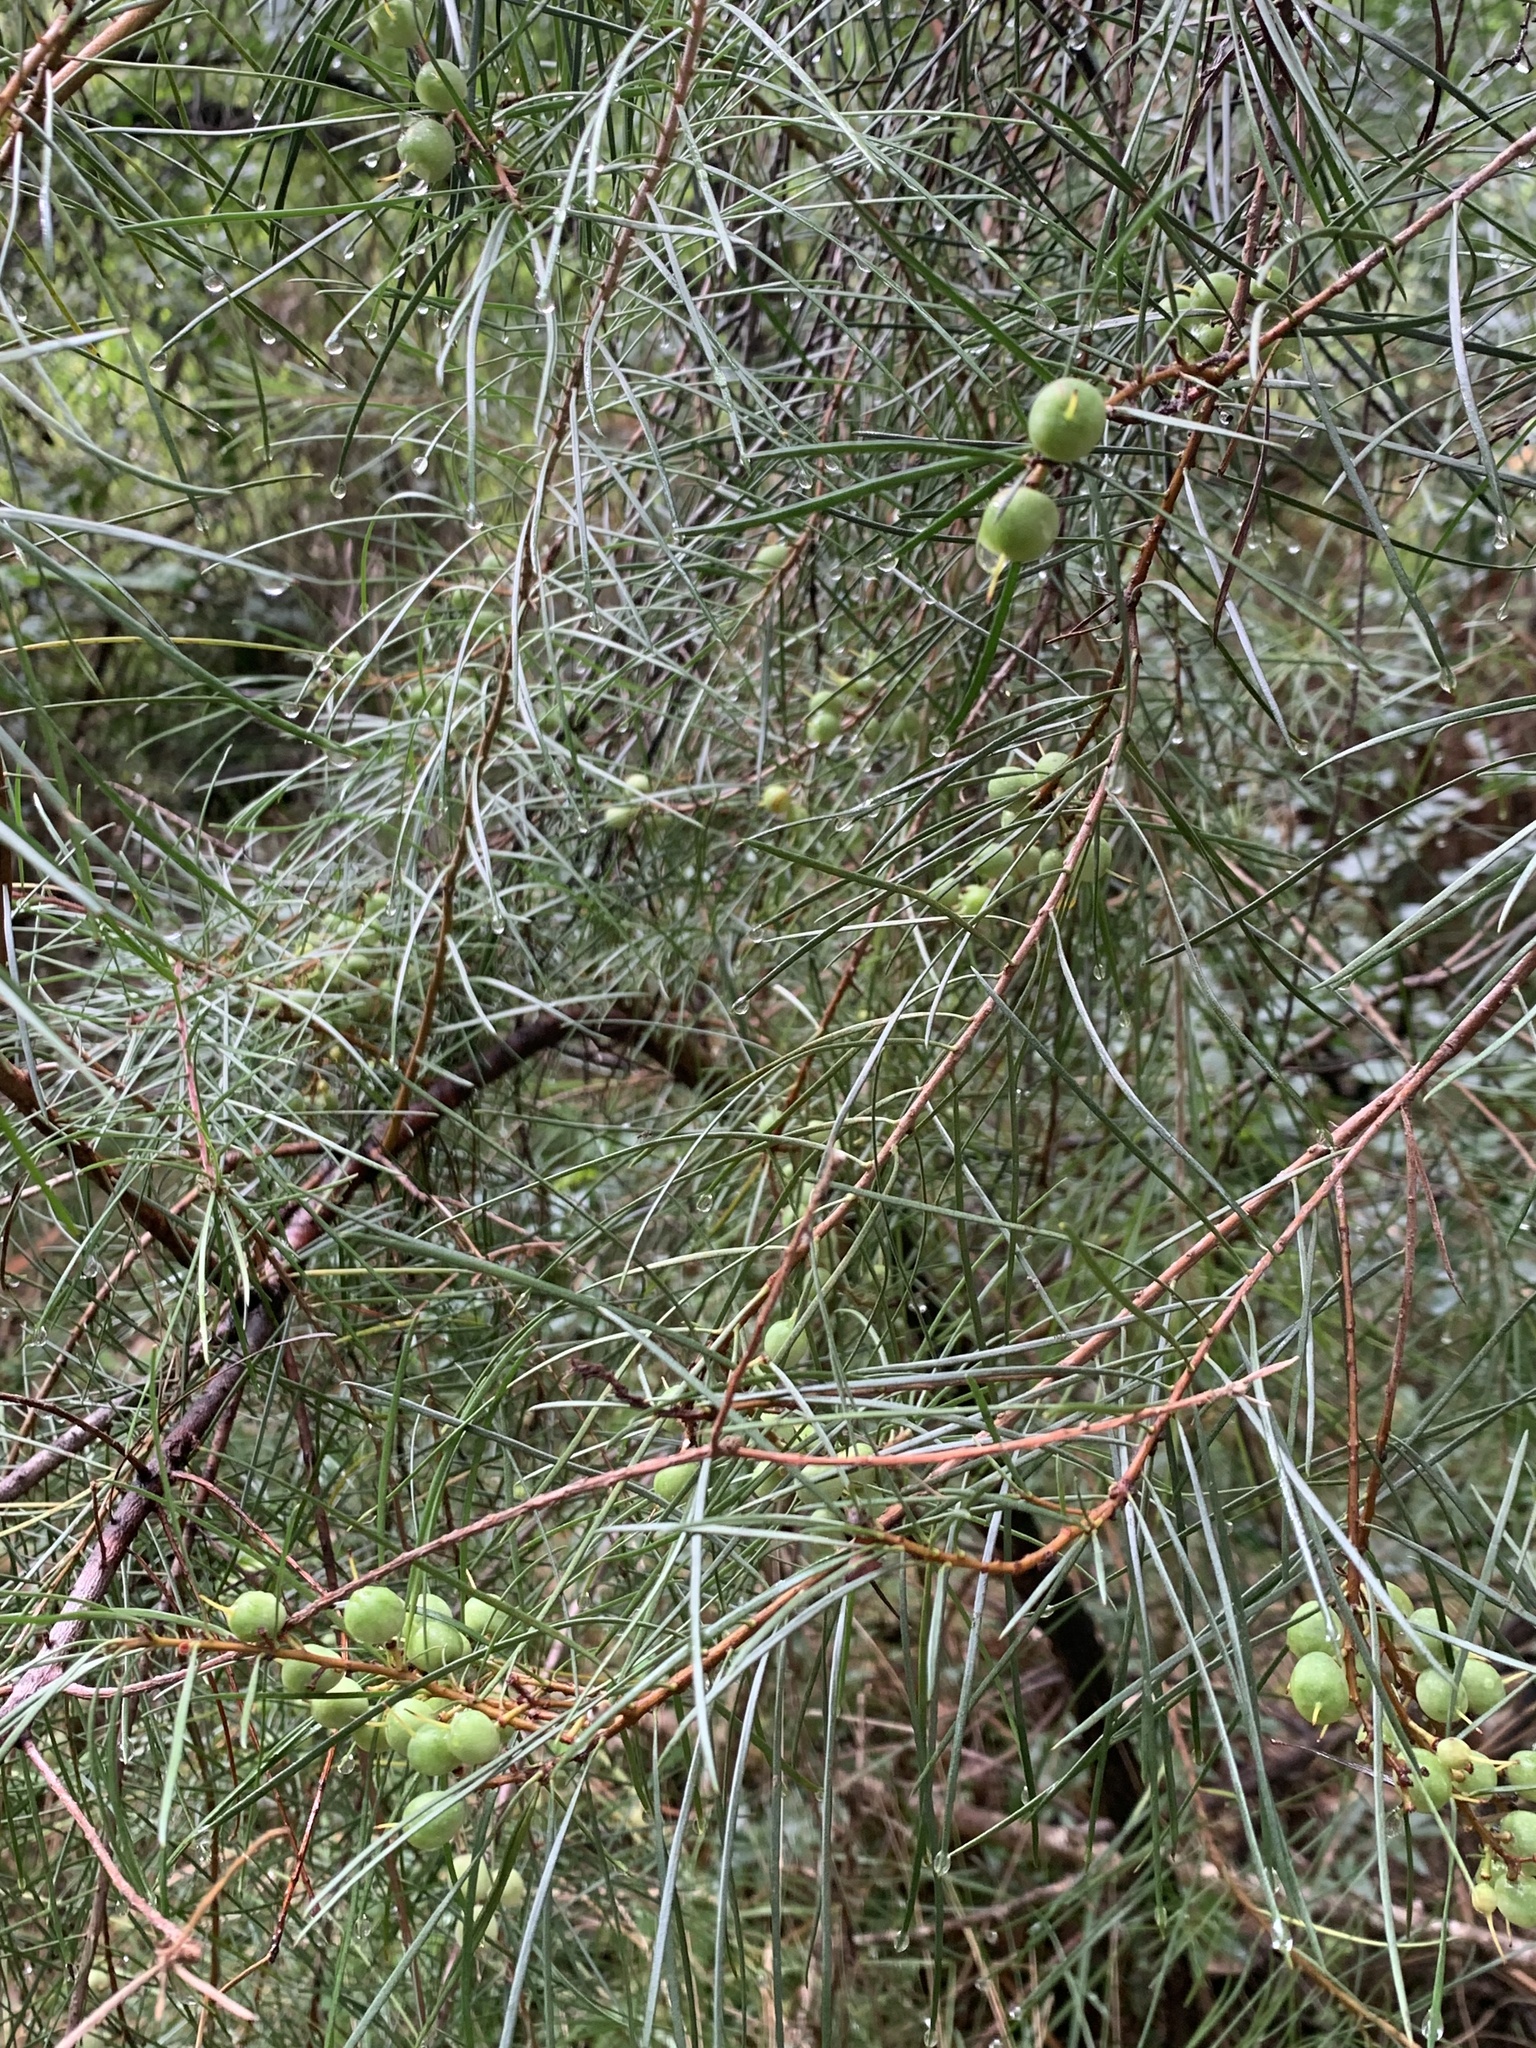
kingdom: Plantae
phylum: Tracheophyta
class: Magnoliopsida
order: Proteales
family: Proteaceae
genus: Persoonia
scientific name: Persoonia linearis
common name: Narrow-leaf geebung
